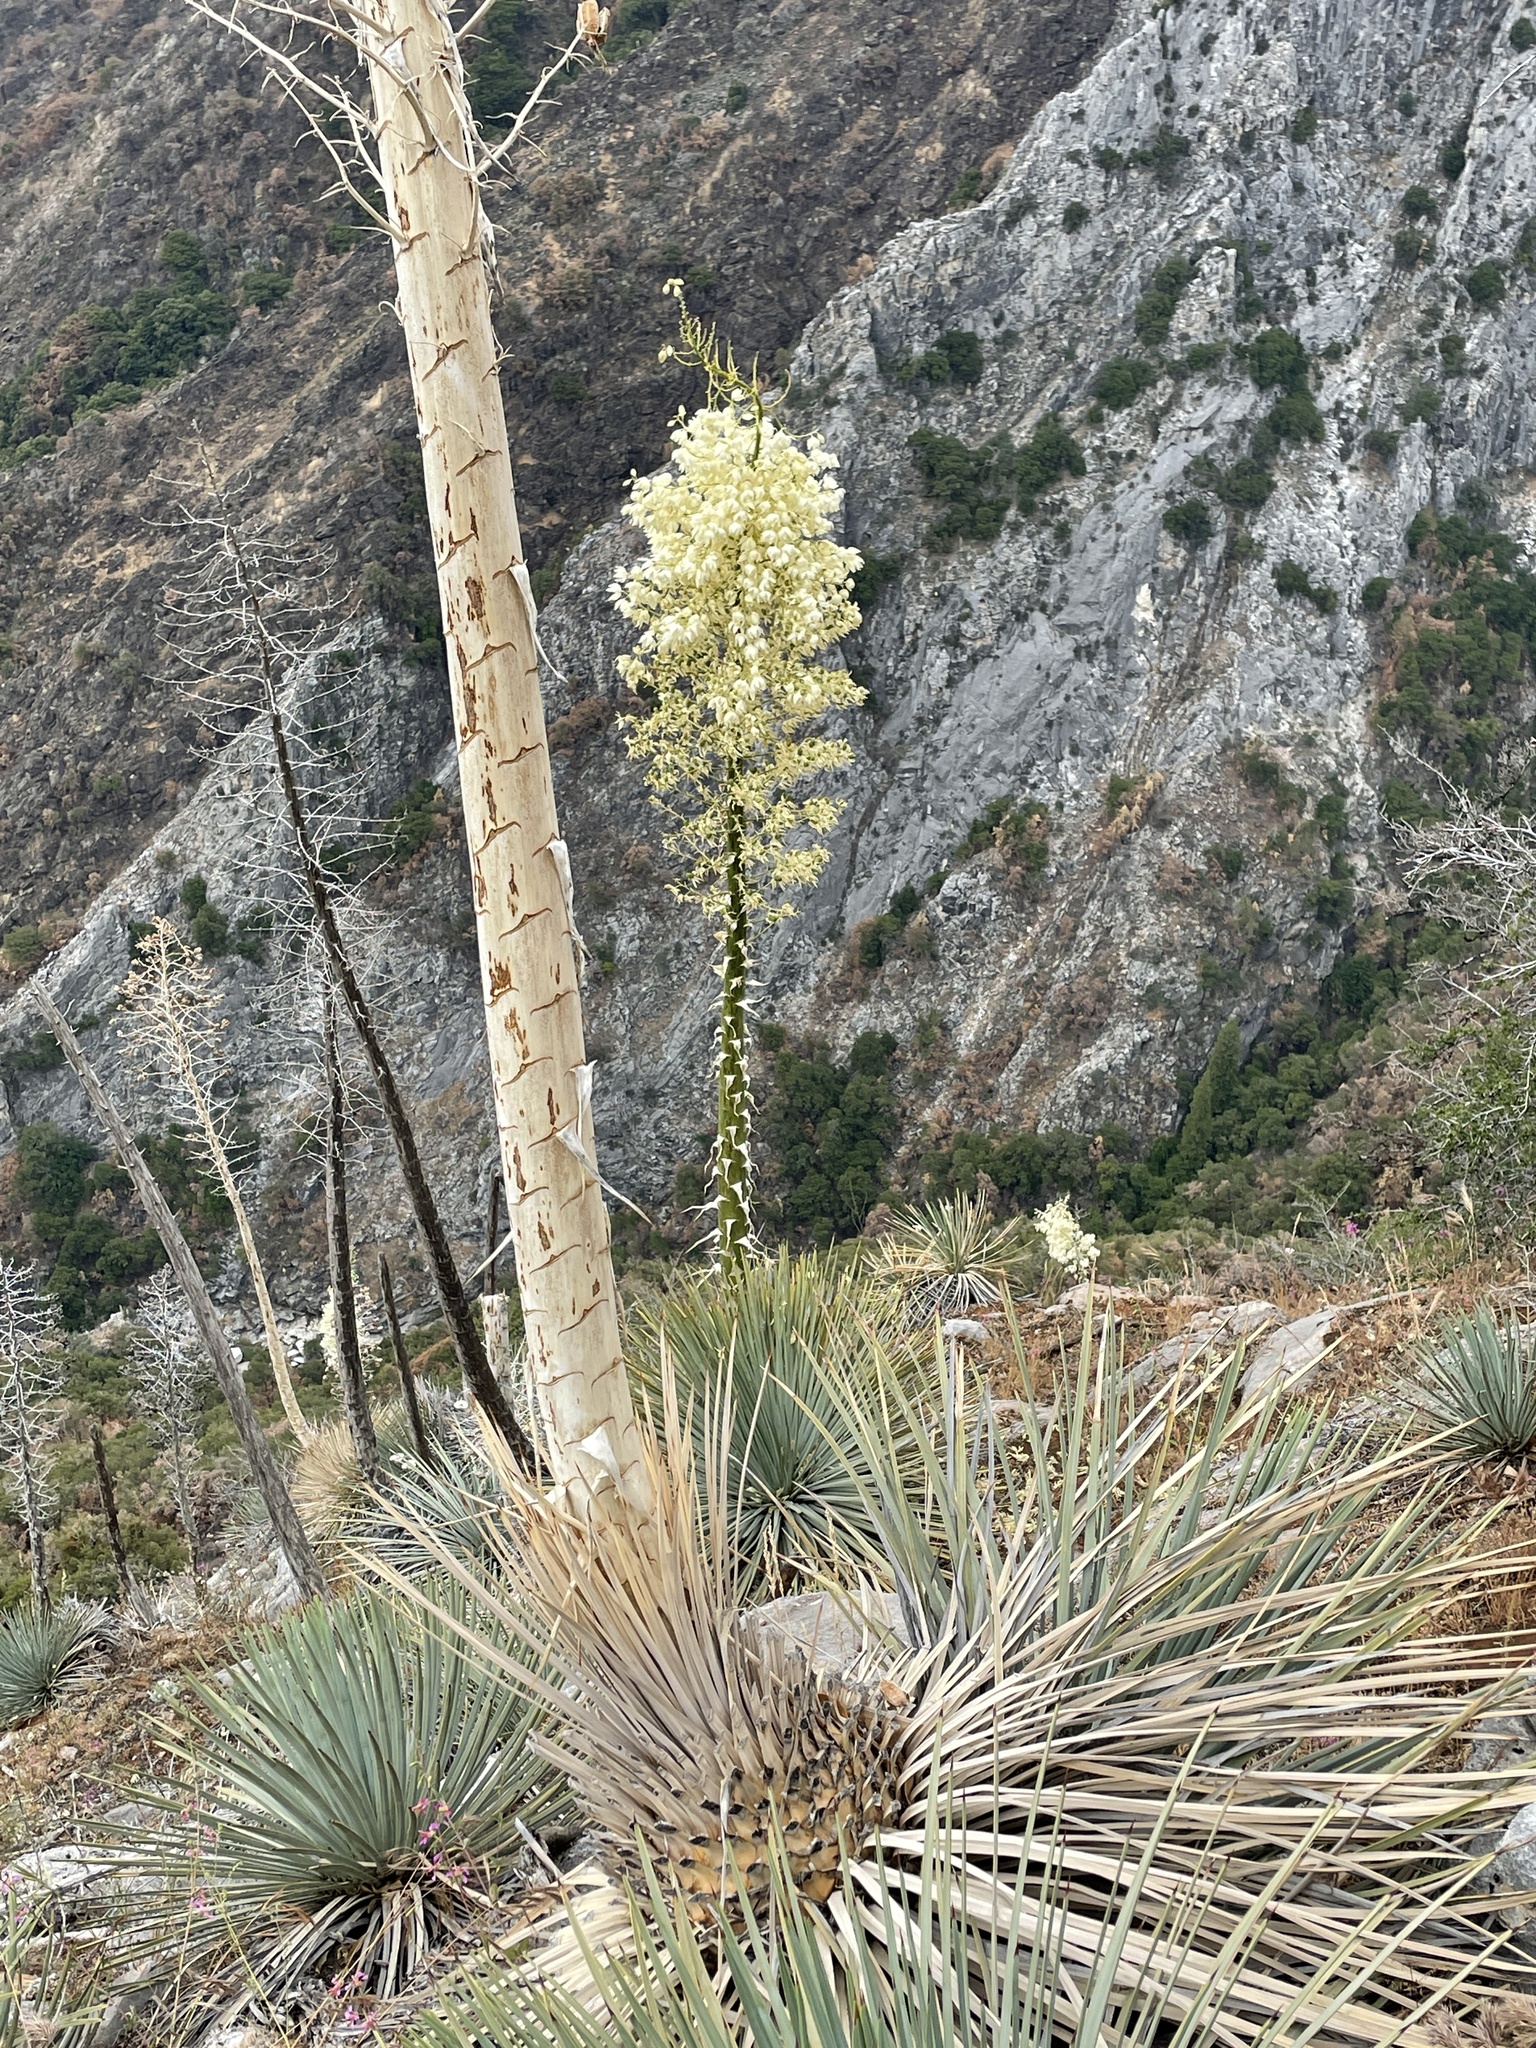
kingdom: Plantae
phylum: Tracheophyta
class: Liliopsida
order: Asparagales
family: Asparagaceae
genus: Hesperoyucca
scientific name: Hesperoyucca whipplei
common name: Our lord's-candle
